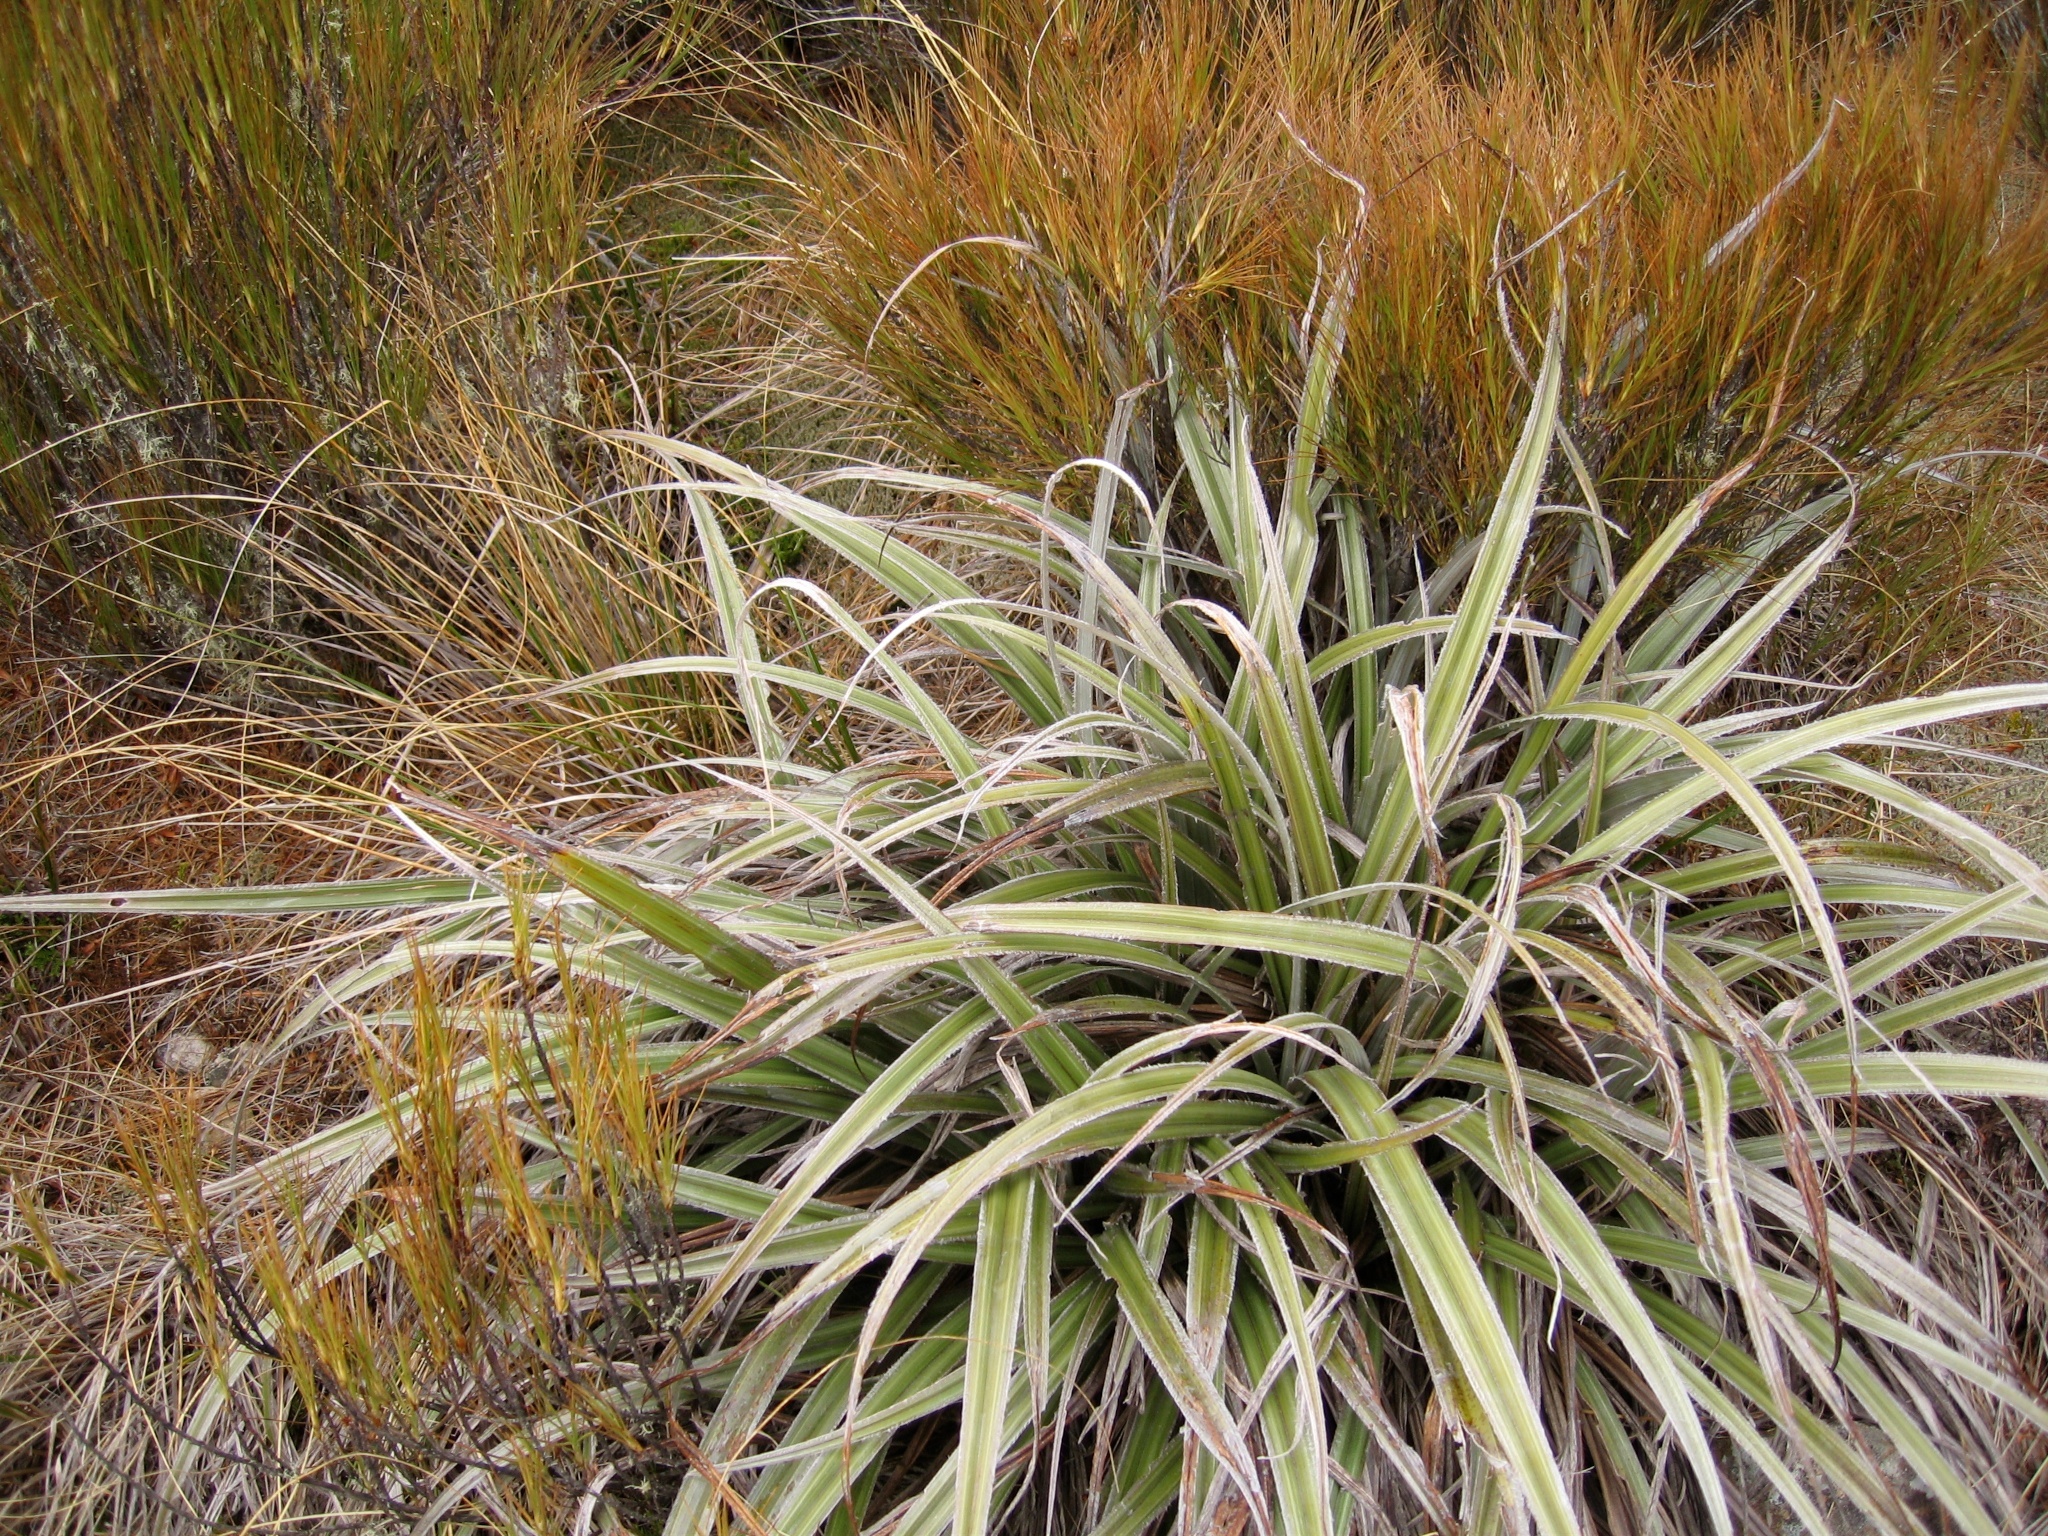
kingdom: Plantae
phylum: Tracheophyta
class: Liliopsida
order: Asparagales
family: Asteliaceae
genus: Astelia
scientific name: Astelia nervosa
